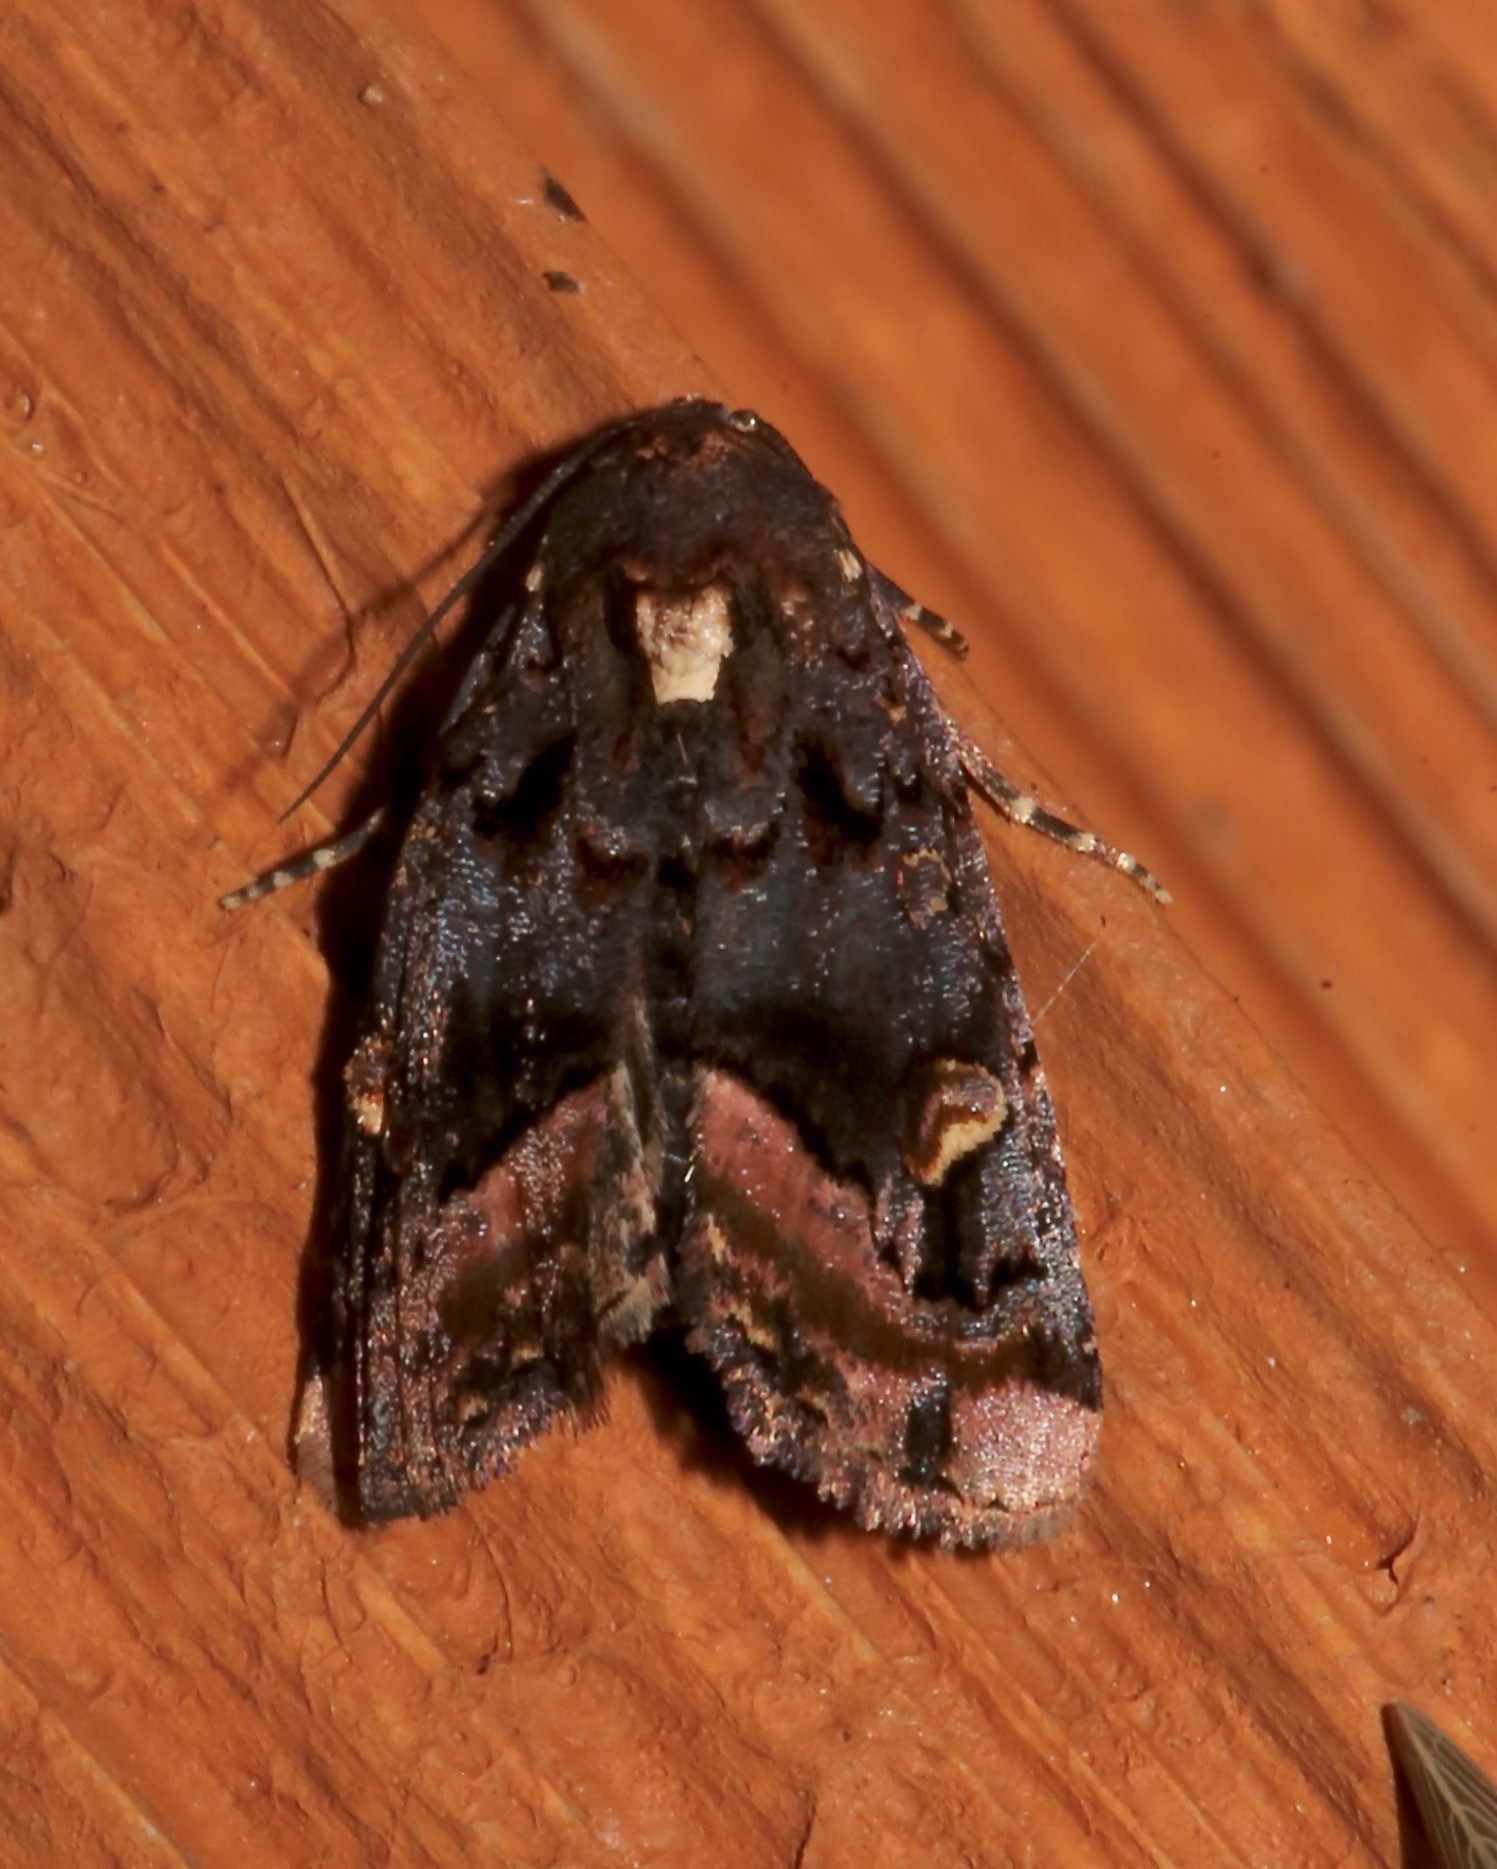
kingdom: Animalia
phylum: Arthropoda
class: Insecta
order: Lepidoptera
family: Noctuidae
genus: Homophoberia
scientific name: Homophoberia apicosa
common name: Black wedge-spot
